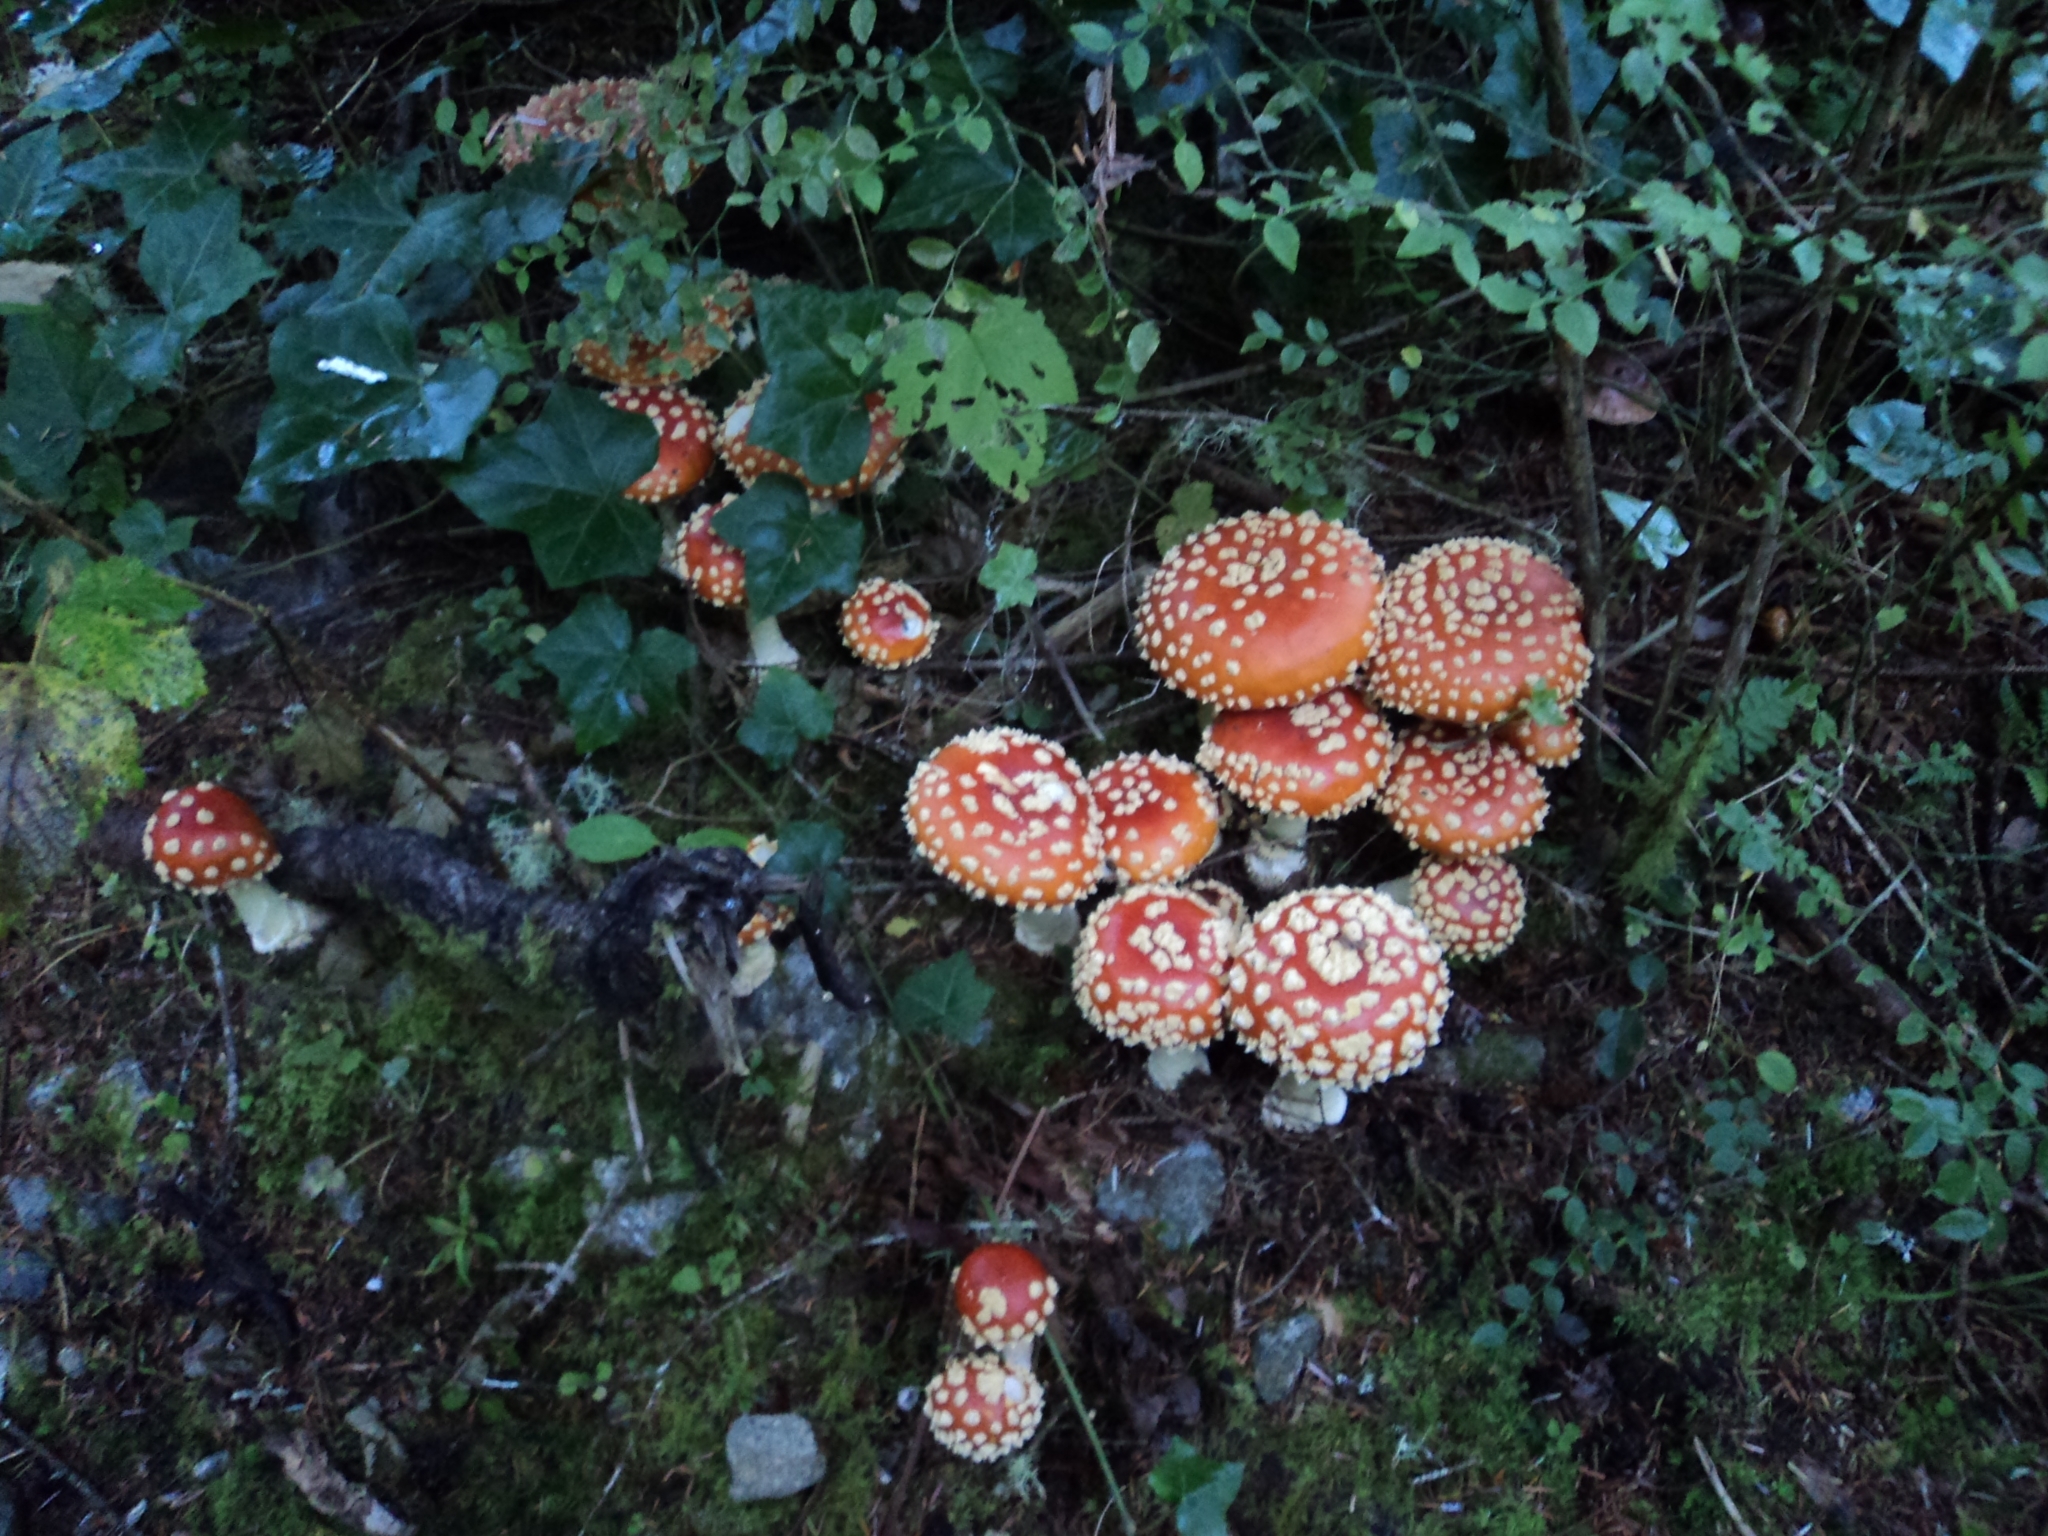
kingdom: Fungi
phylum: Basidiomycota
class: Agaricomycetes
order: Agaricales
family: Amanitaceae
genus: Amanita
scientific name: Amanita muscaria
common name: Fly agaric
